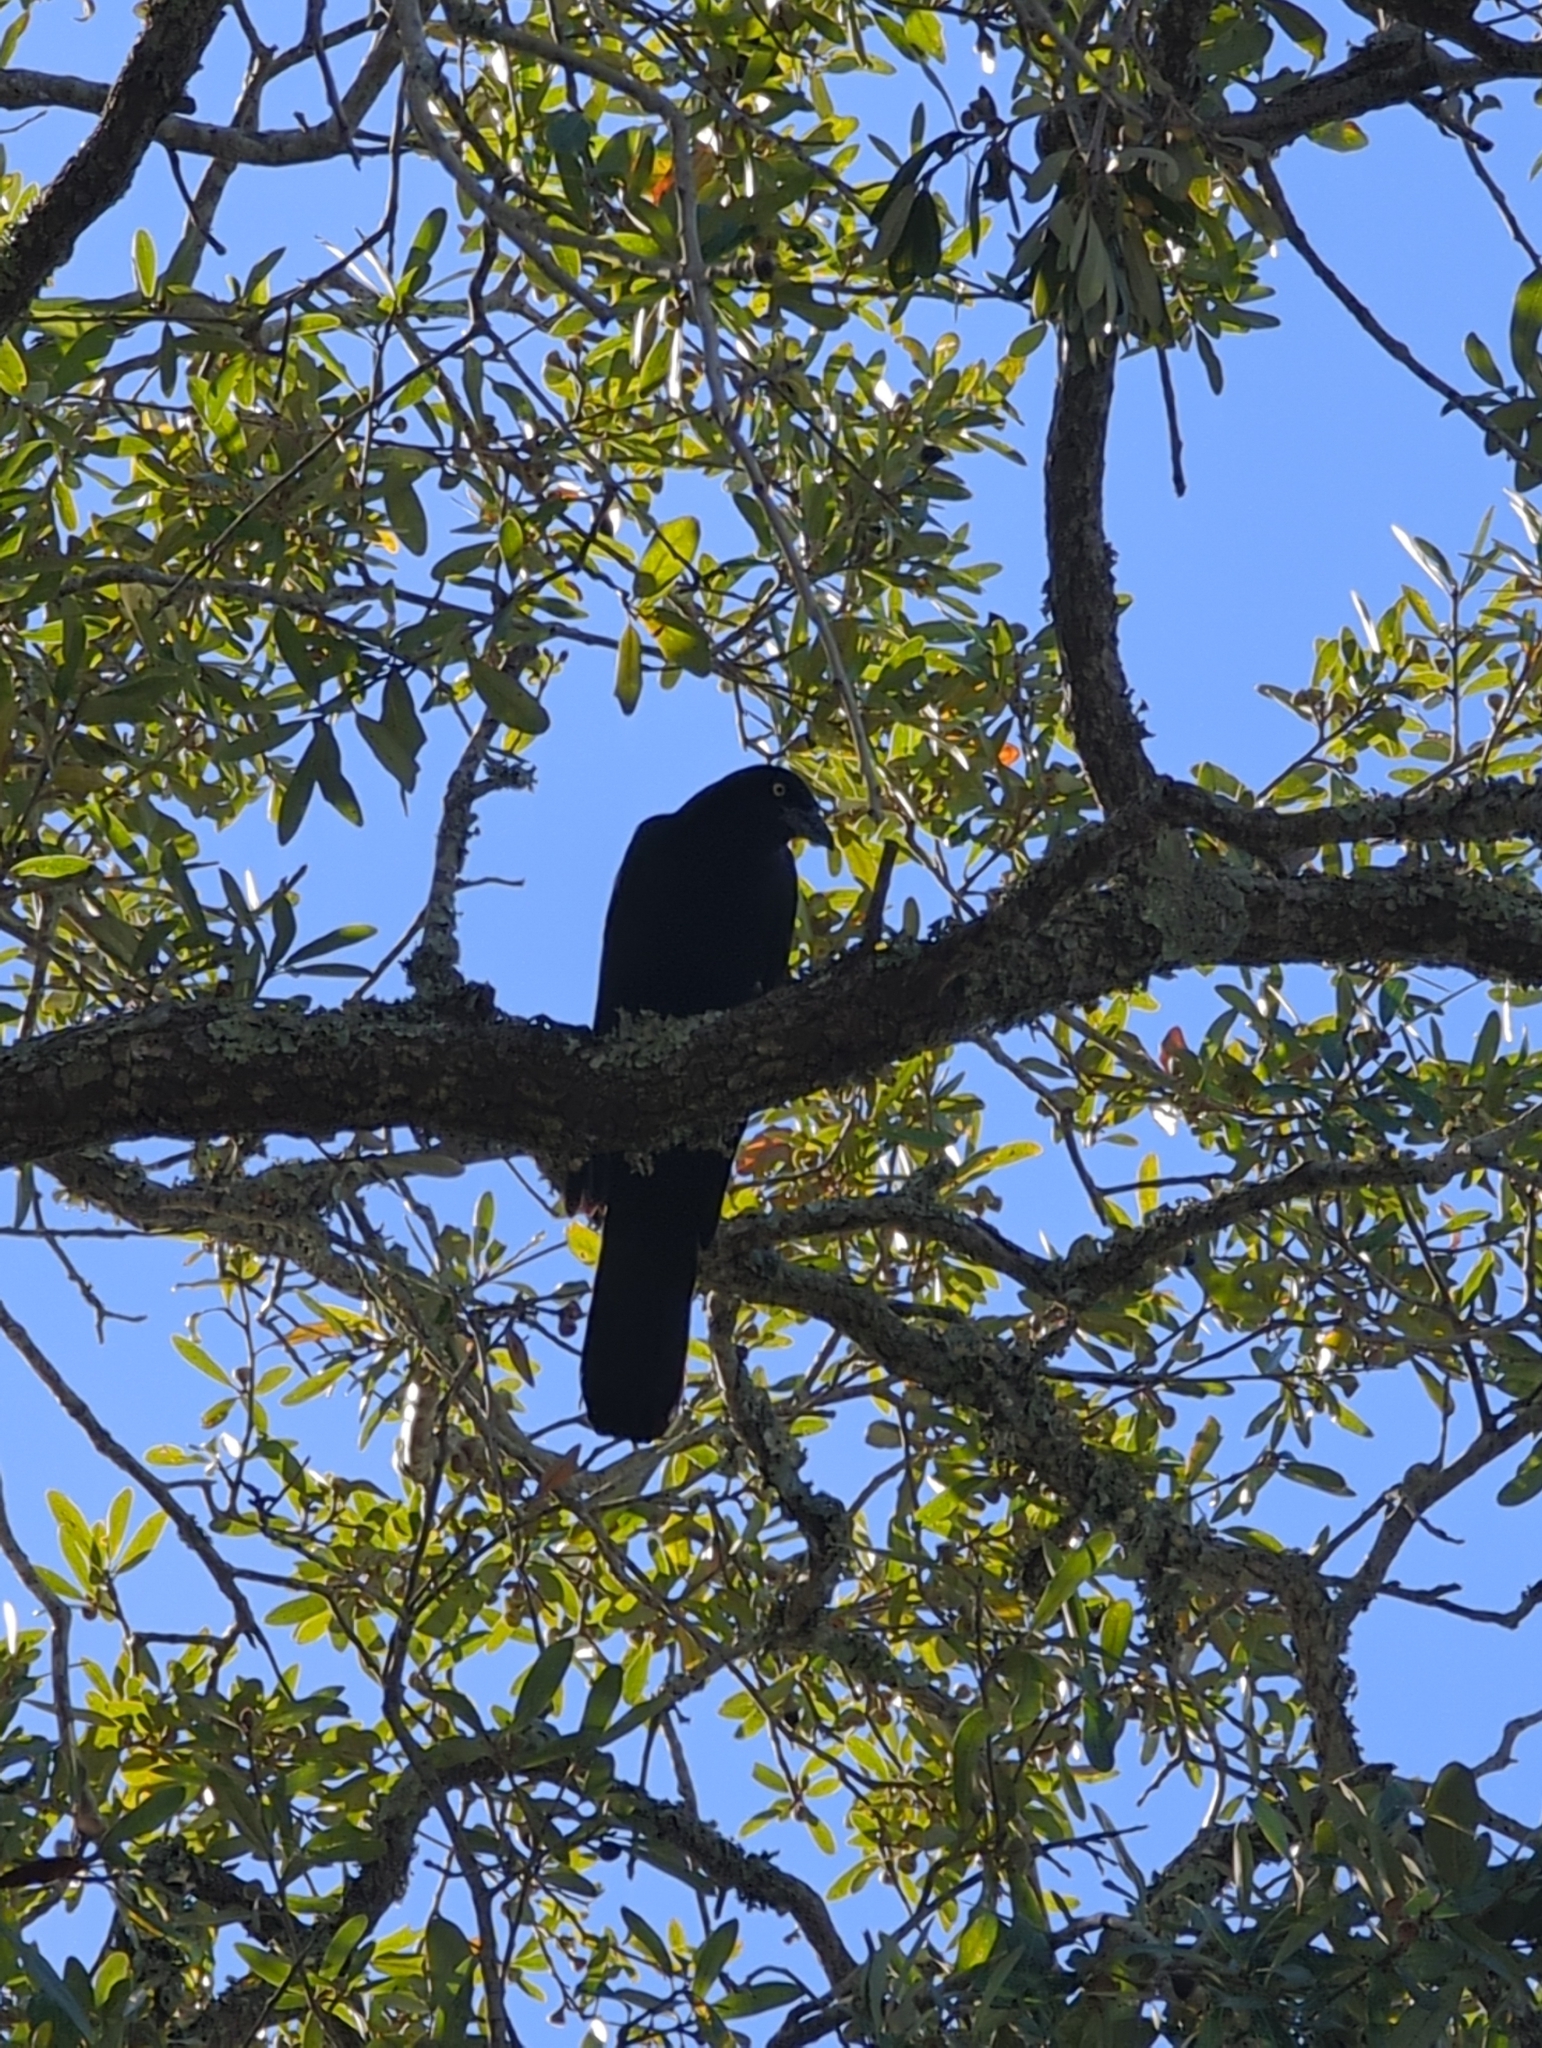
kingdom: Animalia
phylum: Chordata
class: Aves
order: Passeriformes
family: Icteridae
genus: Quiscalus
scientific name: Quiscalus major
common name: Boat-tailed grackle
